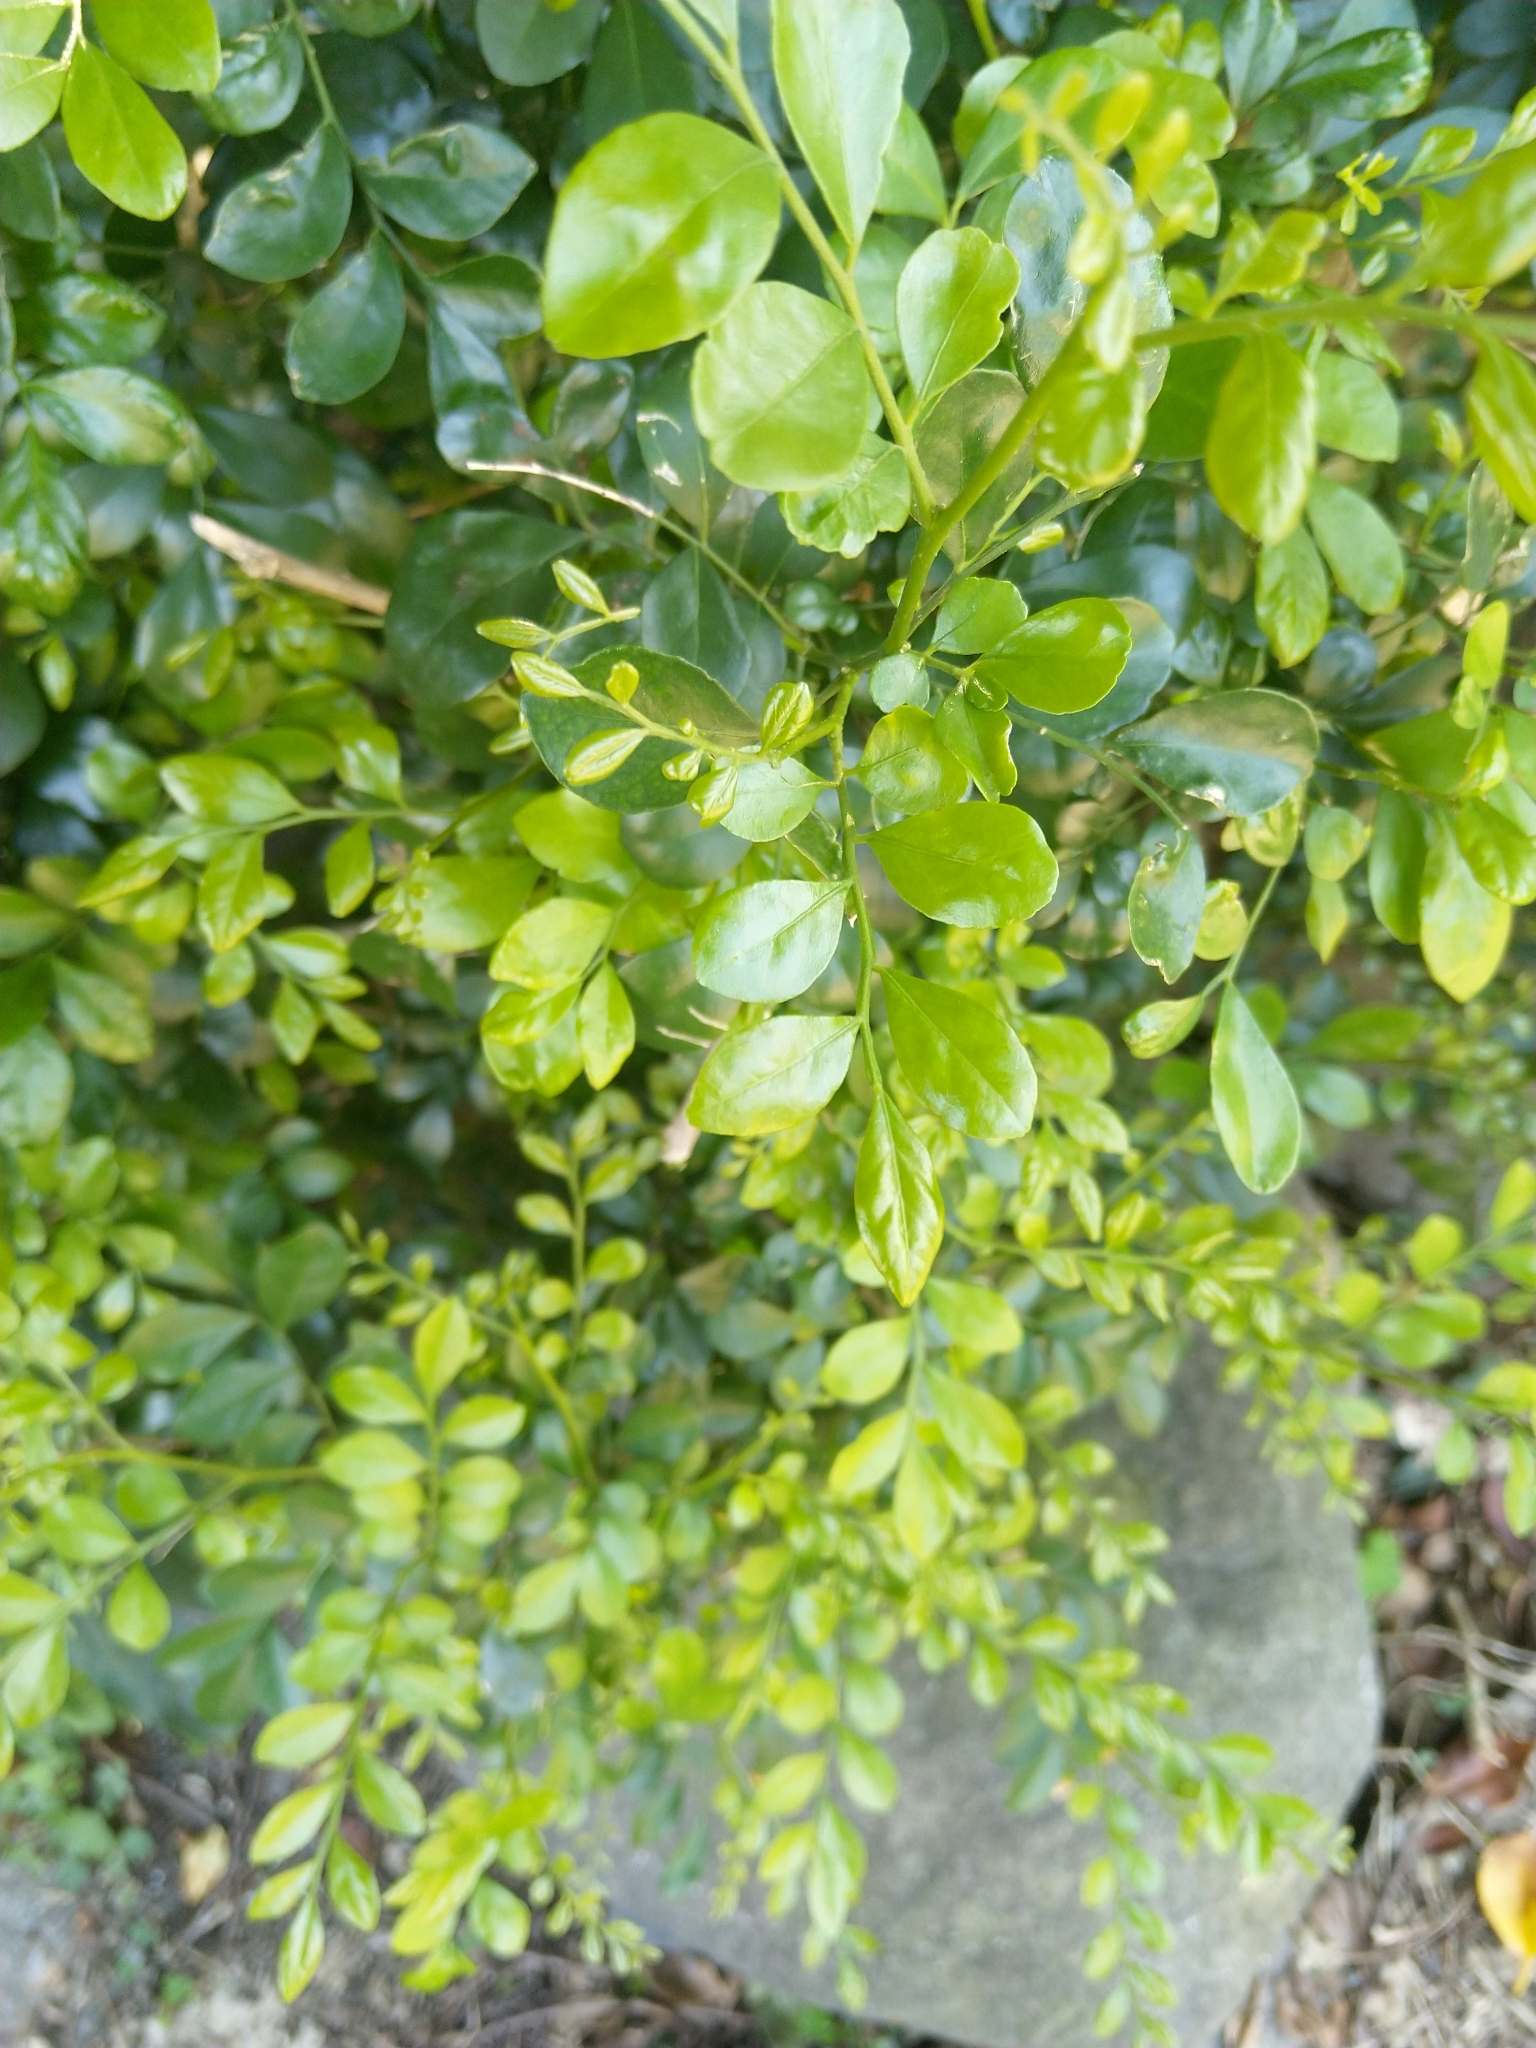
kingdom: Plantae
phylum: Tracheophyta
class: Magnoliopsida
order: Sapindales
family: Rutaceae
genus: Murraya
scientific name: Murraya paniculata
